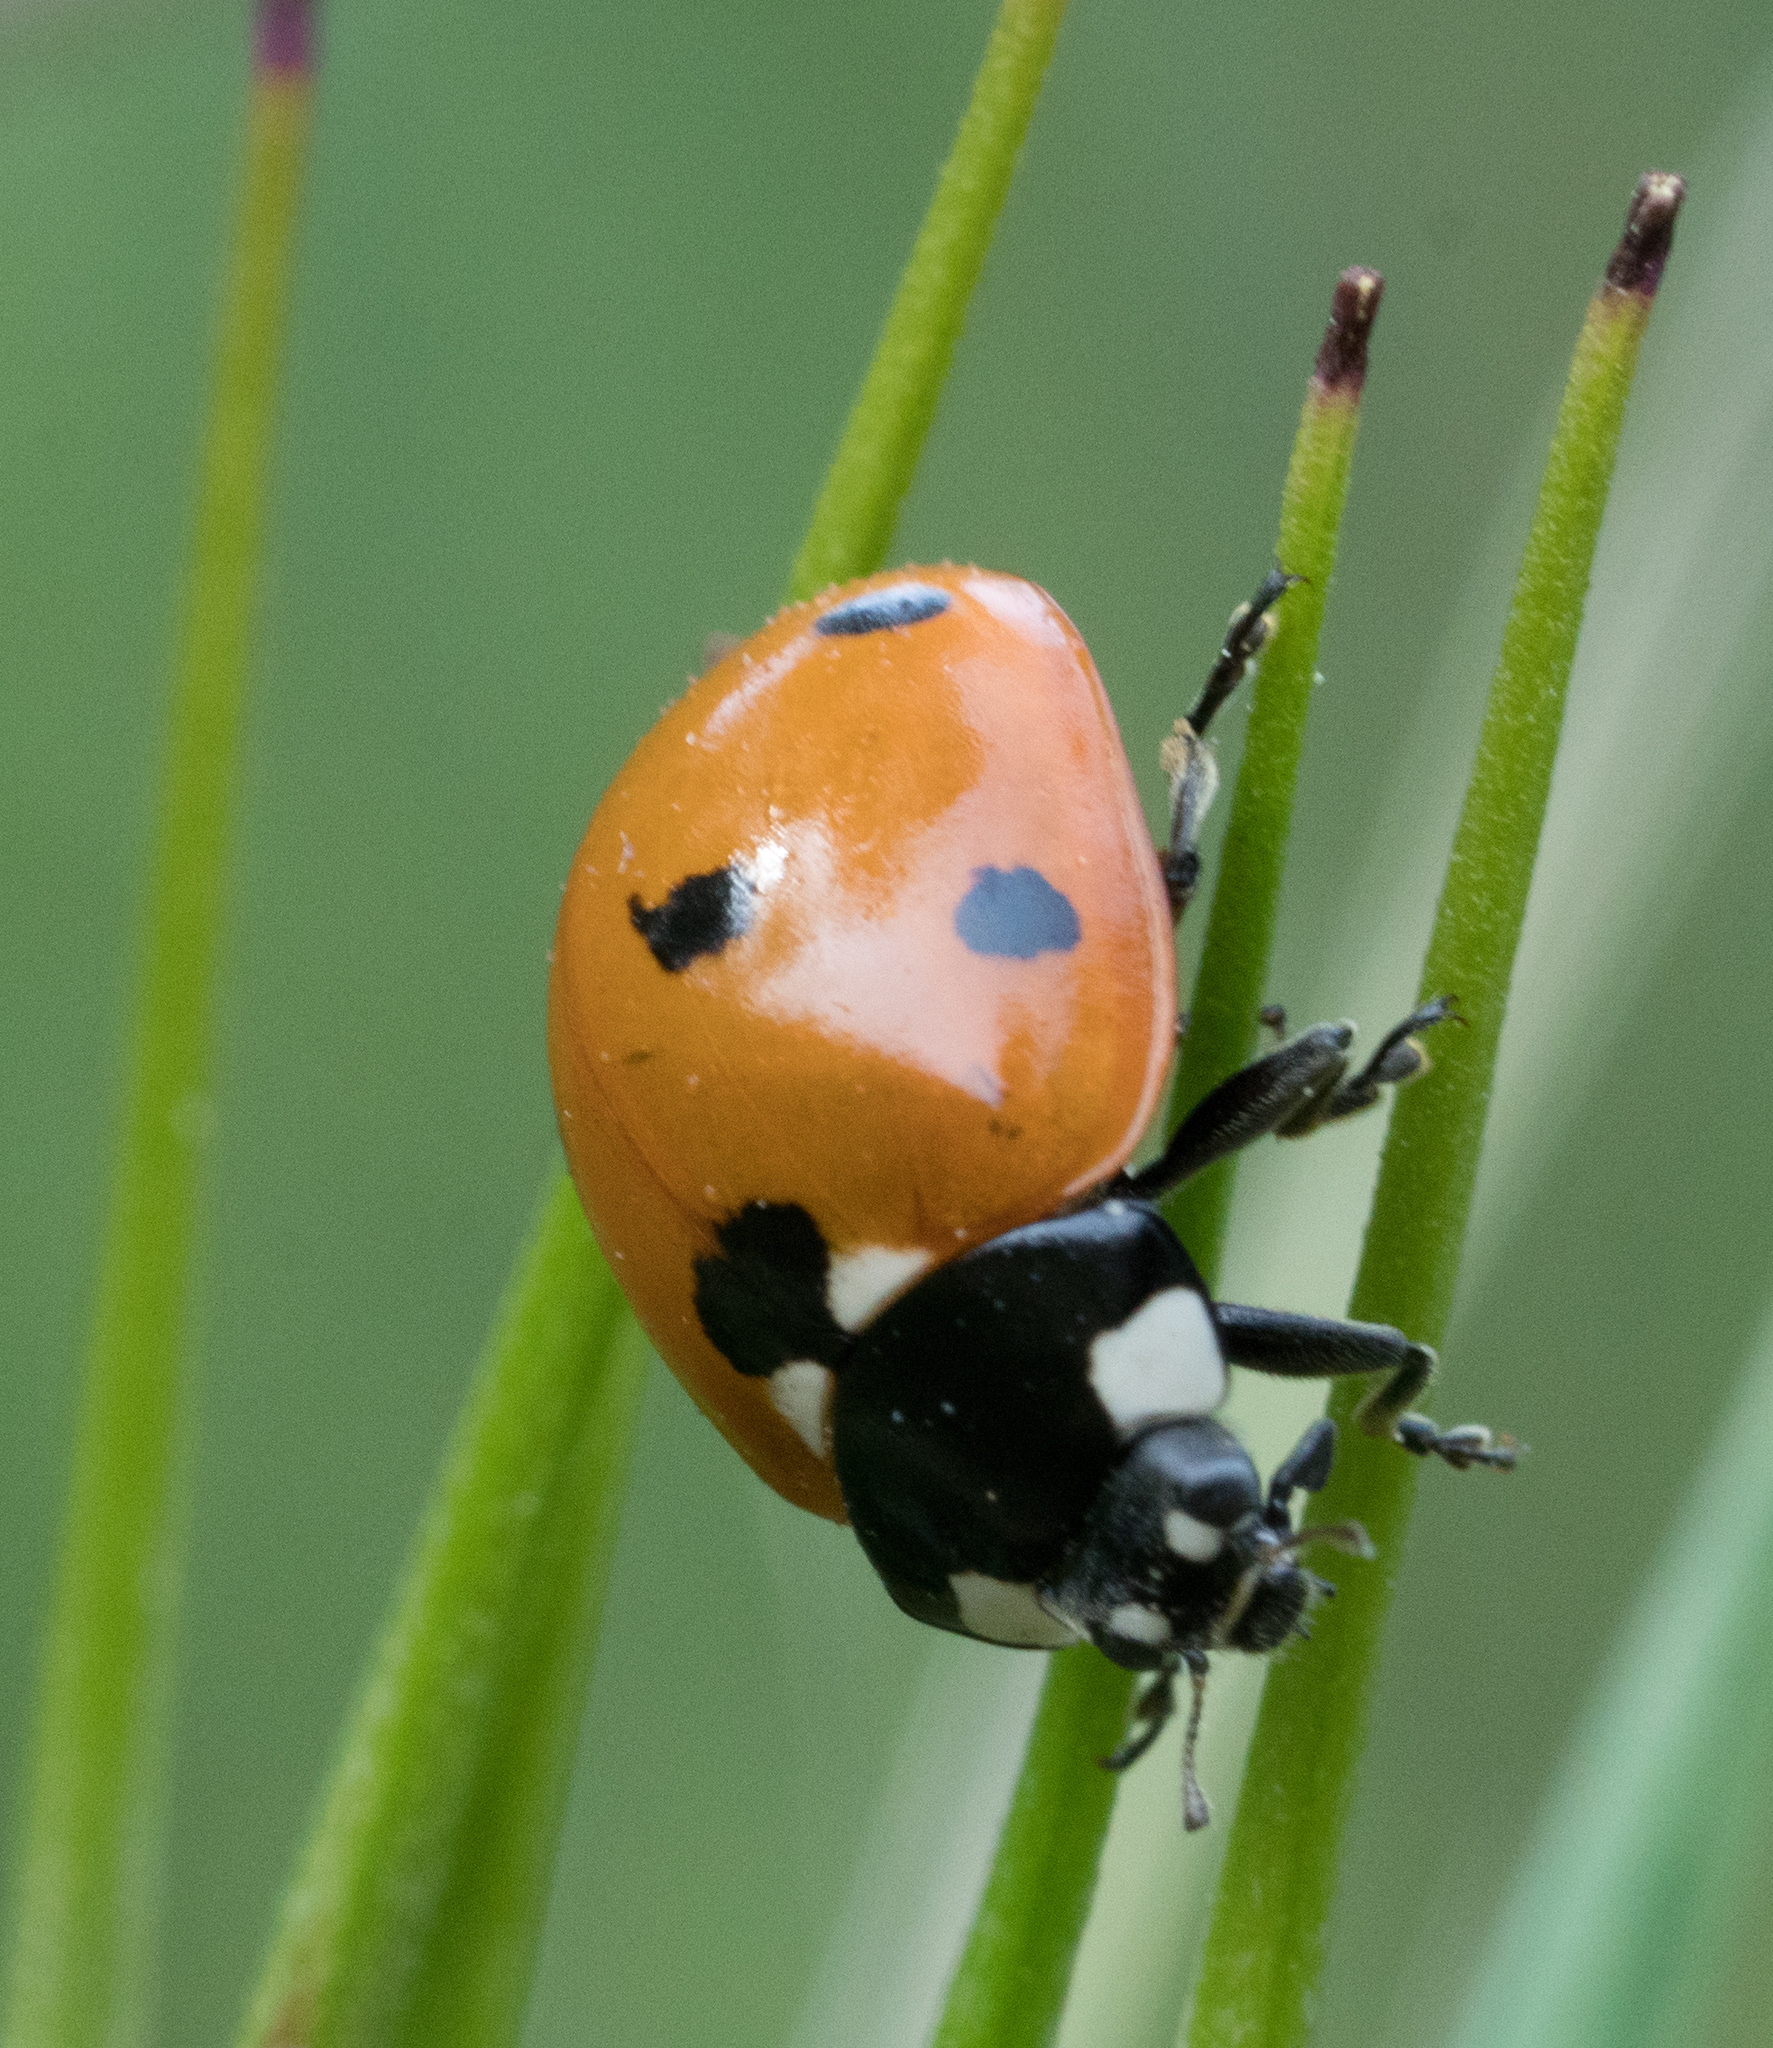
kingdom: Animalia
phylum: Arthropoda
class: Insecta
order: Coleoptera
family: Coccinellidae
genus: Coccinella
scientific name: Coccinella septempunctata
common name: Sevenspotted lady beetle
